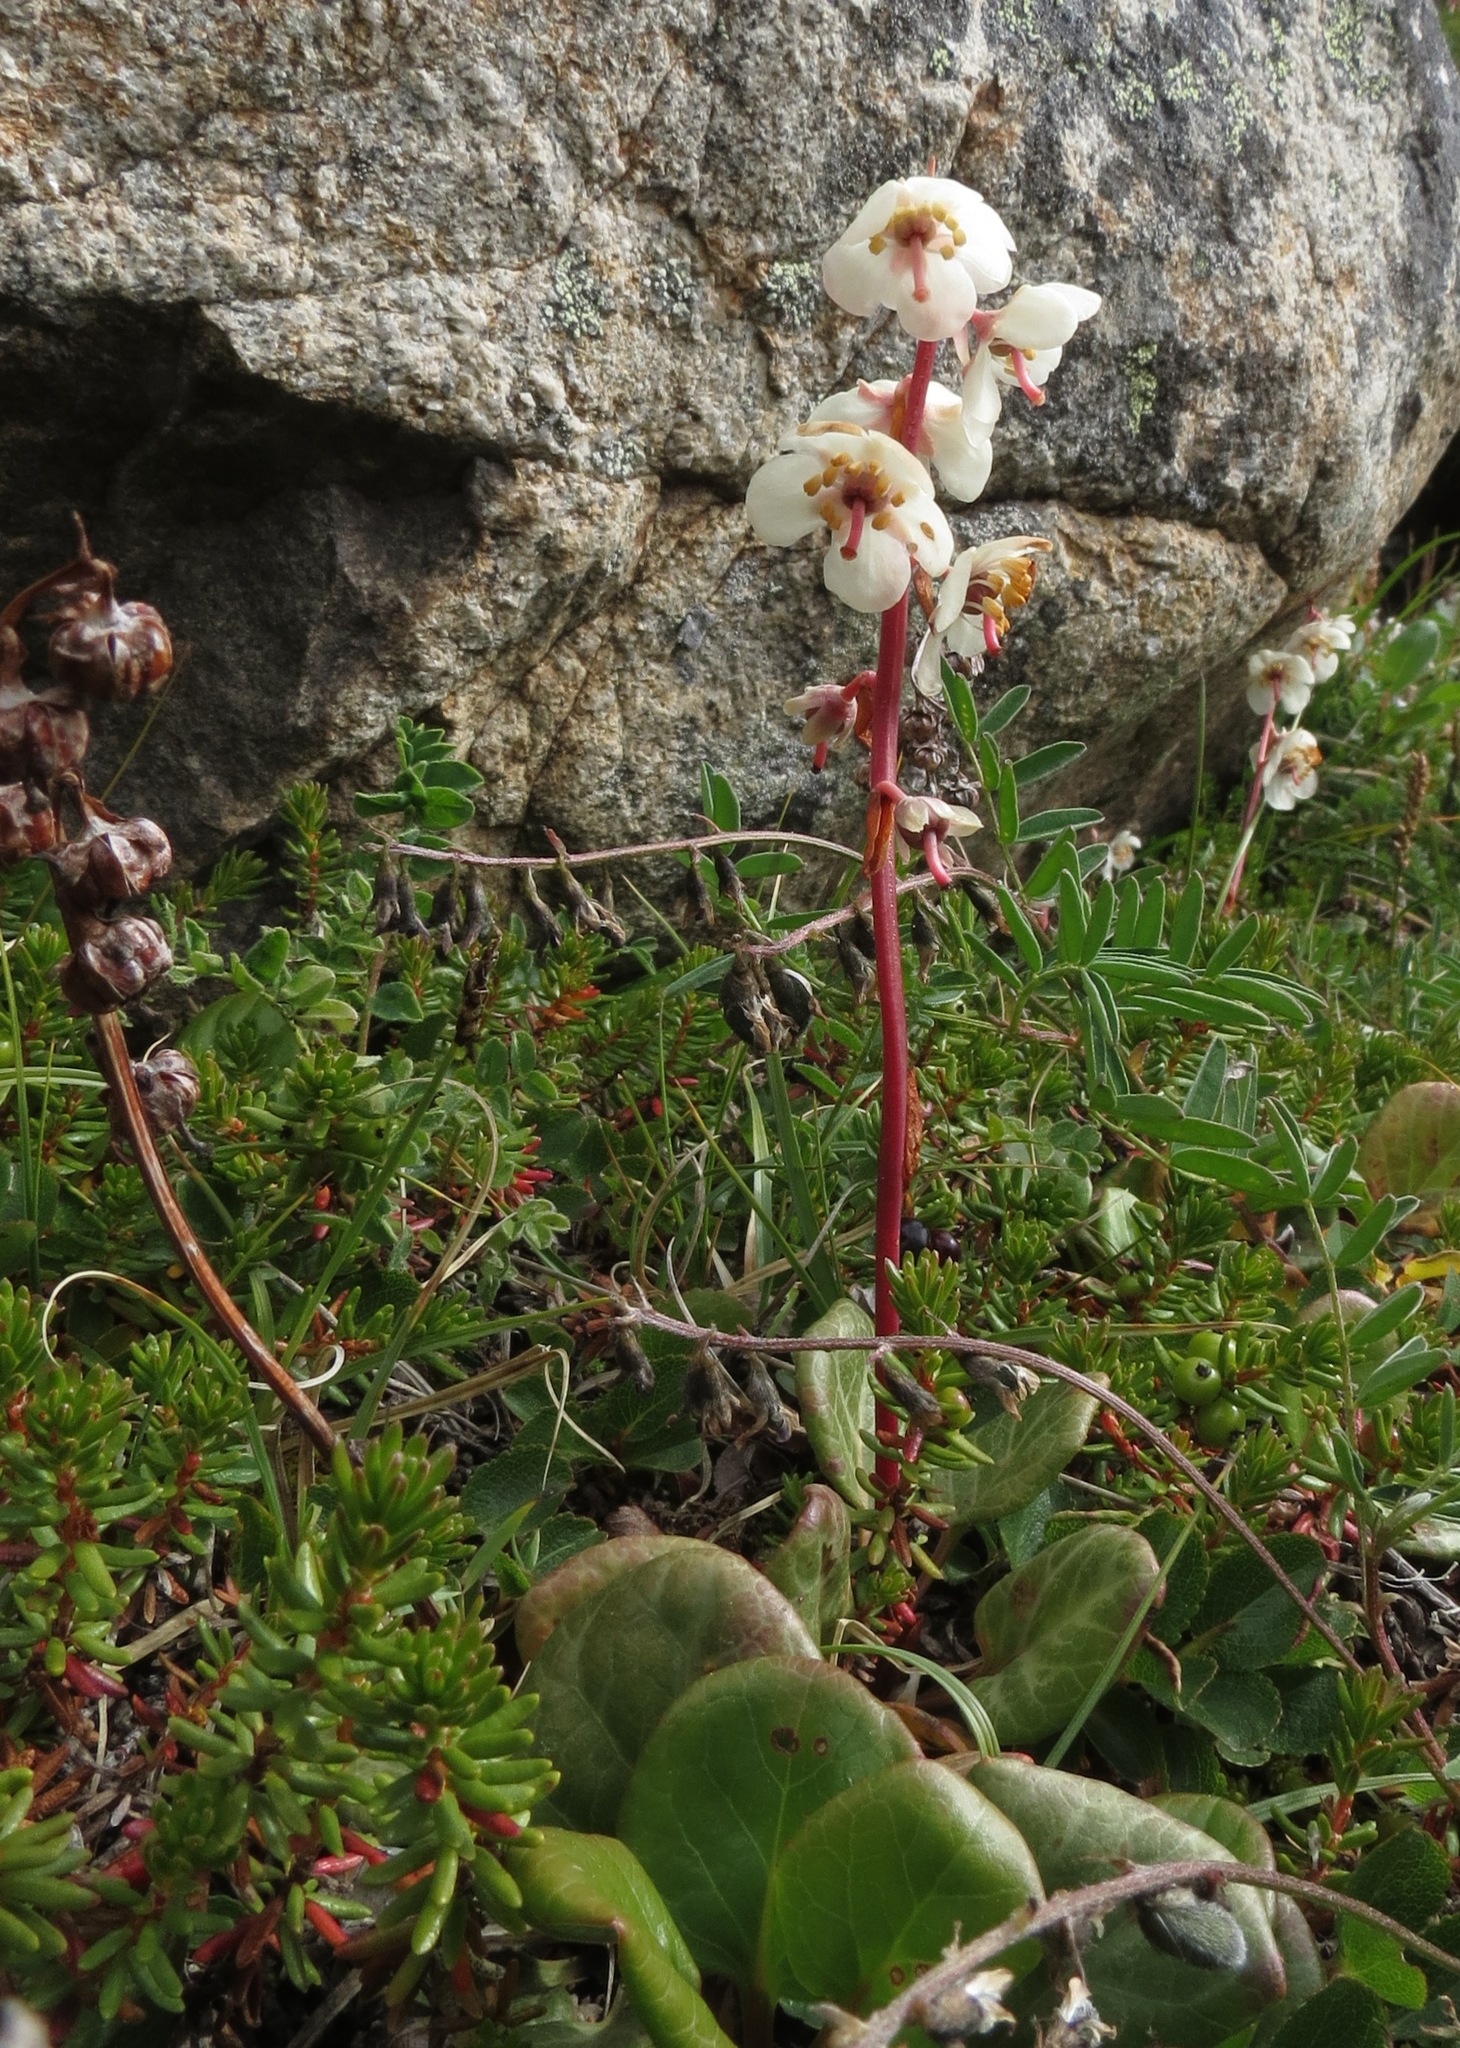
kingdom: Plantae
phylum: Tracheophyta
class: Magnoliopsida
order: Ericales
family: Ericaceae
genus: Pyrola
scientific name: Pyrola grandiflora
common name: Arctic pyrola
